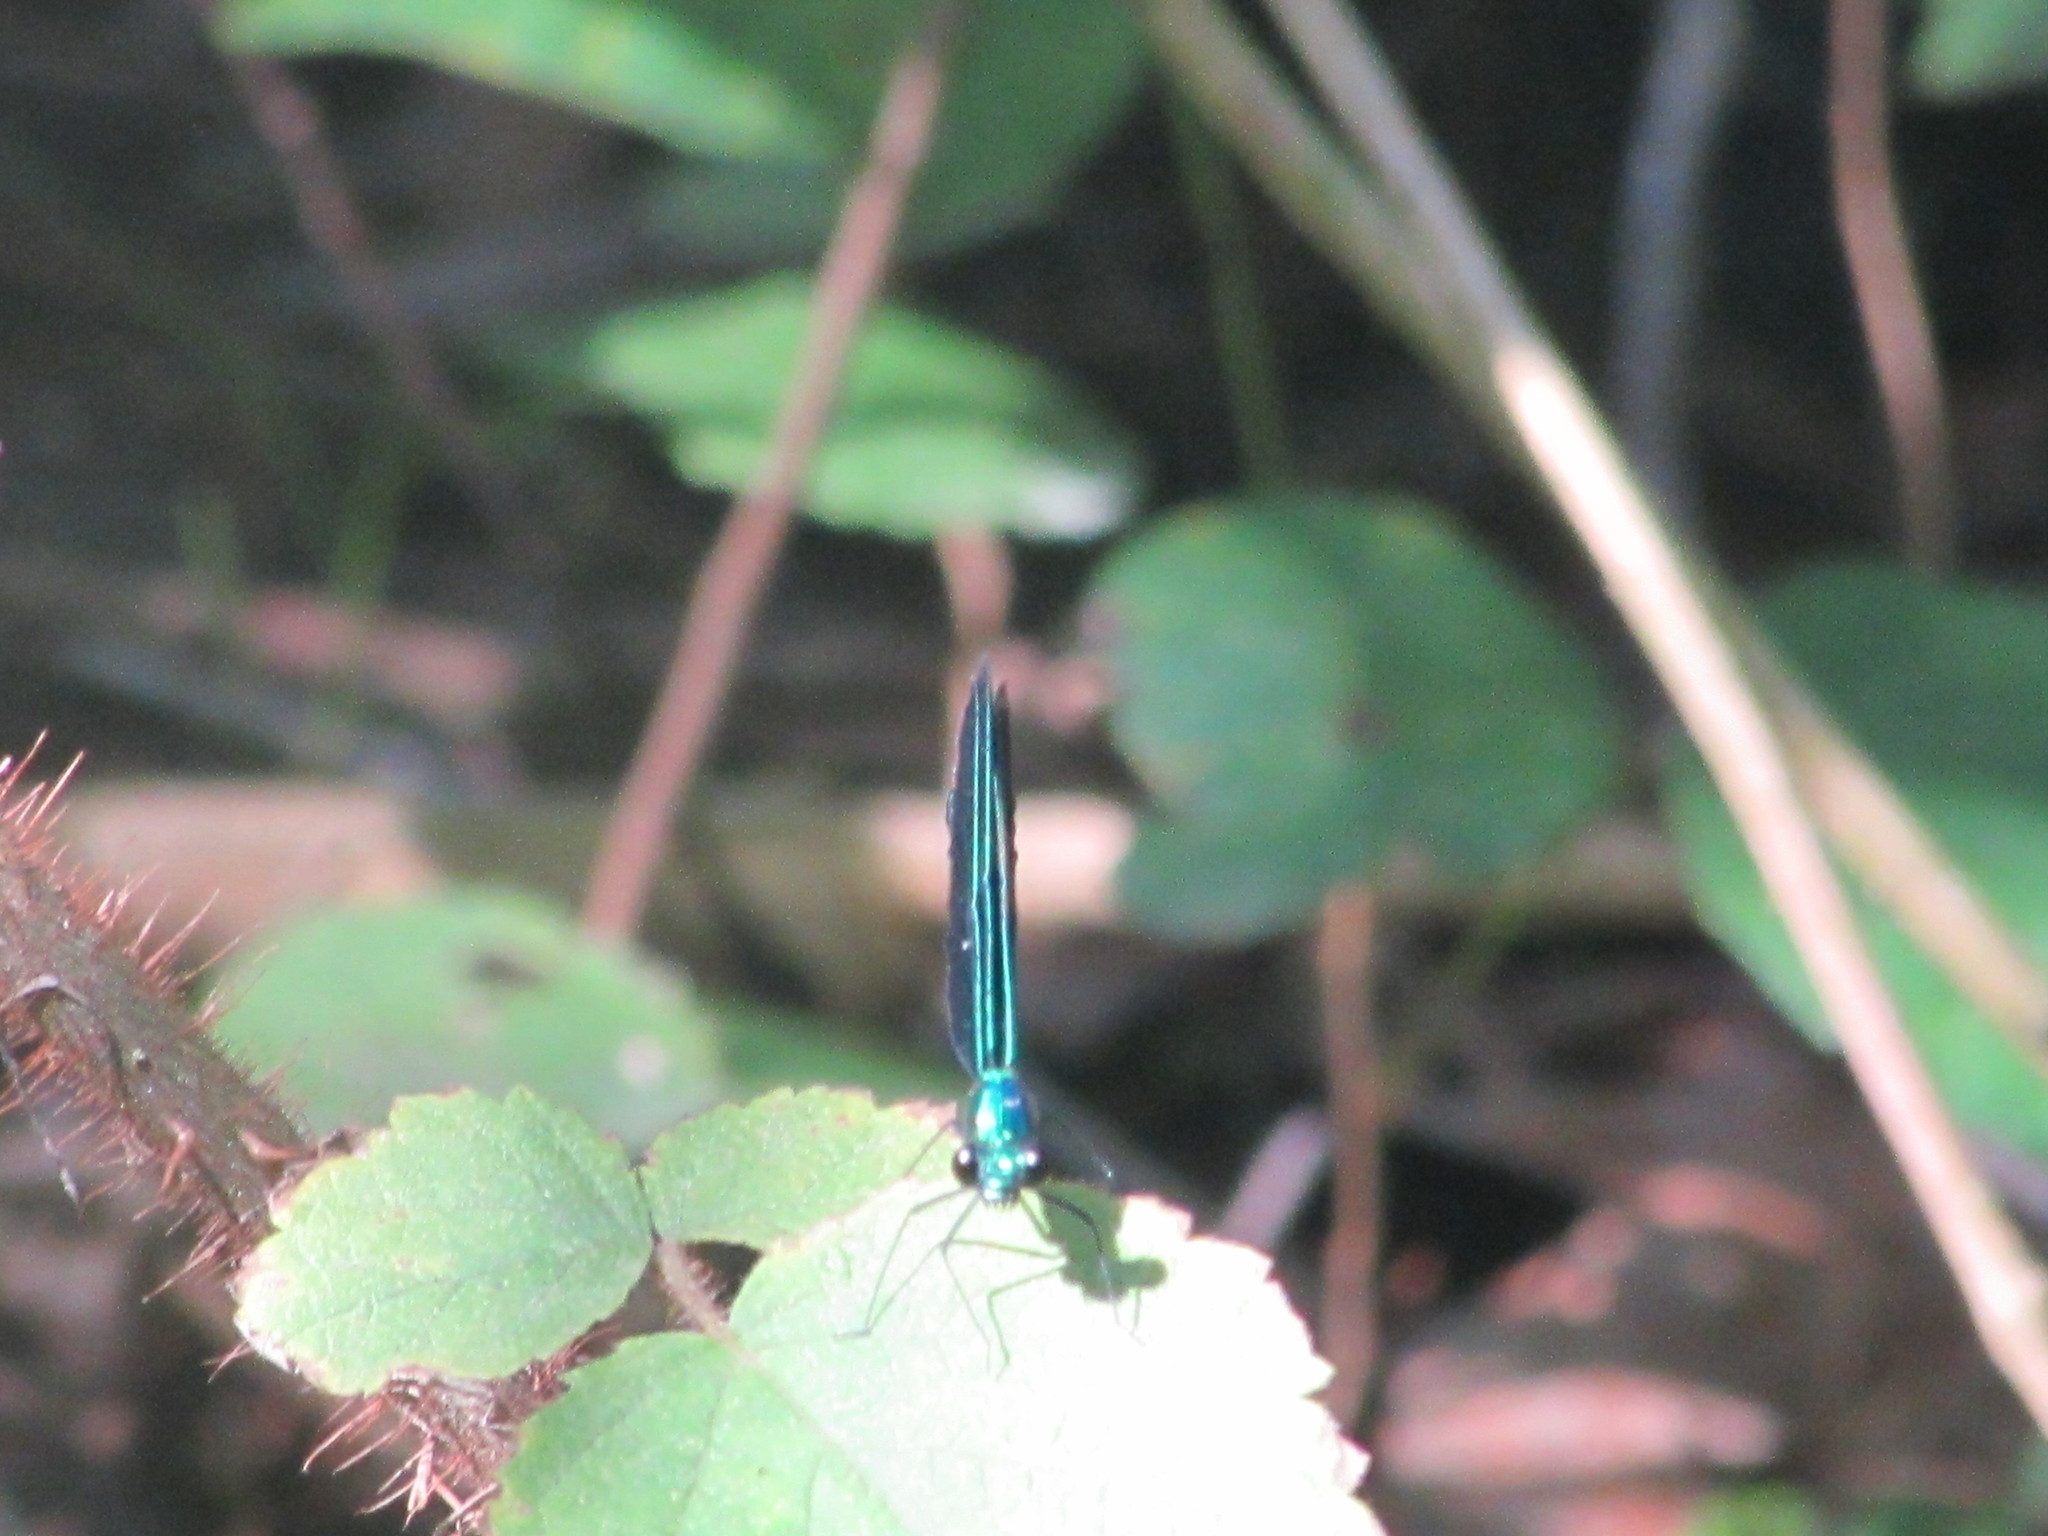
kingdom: Animalia
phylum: Arthropoda
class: Insecta
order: Odonata
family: Calopterygidae
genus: Calopteryx
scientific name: Calopteryx maculata
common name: Ebony jewelwing
